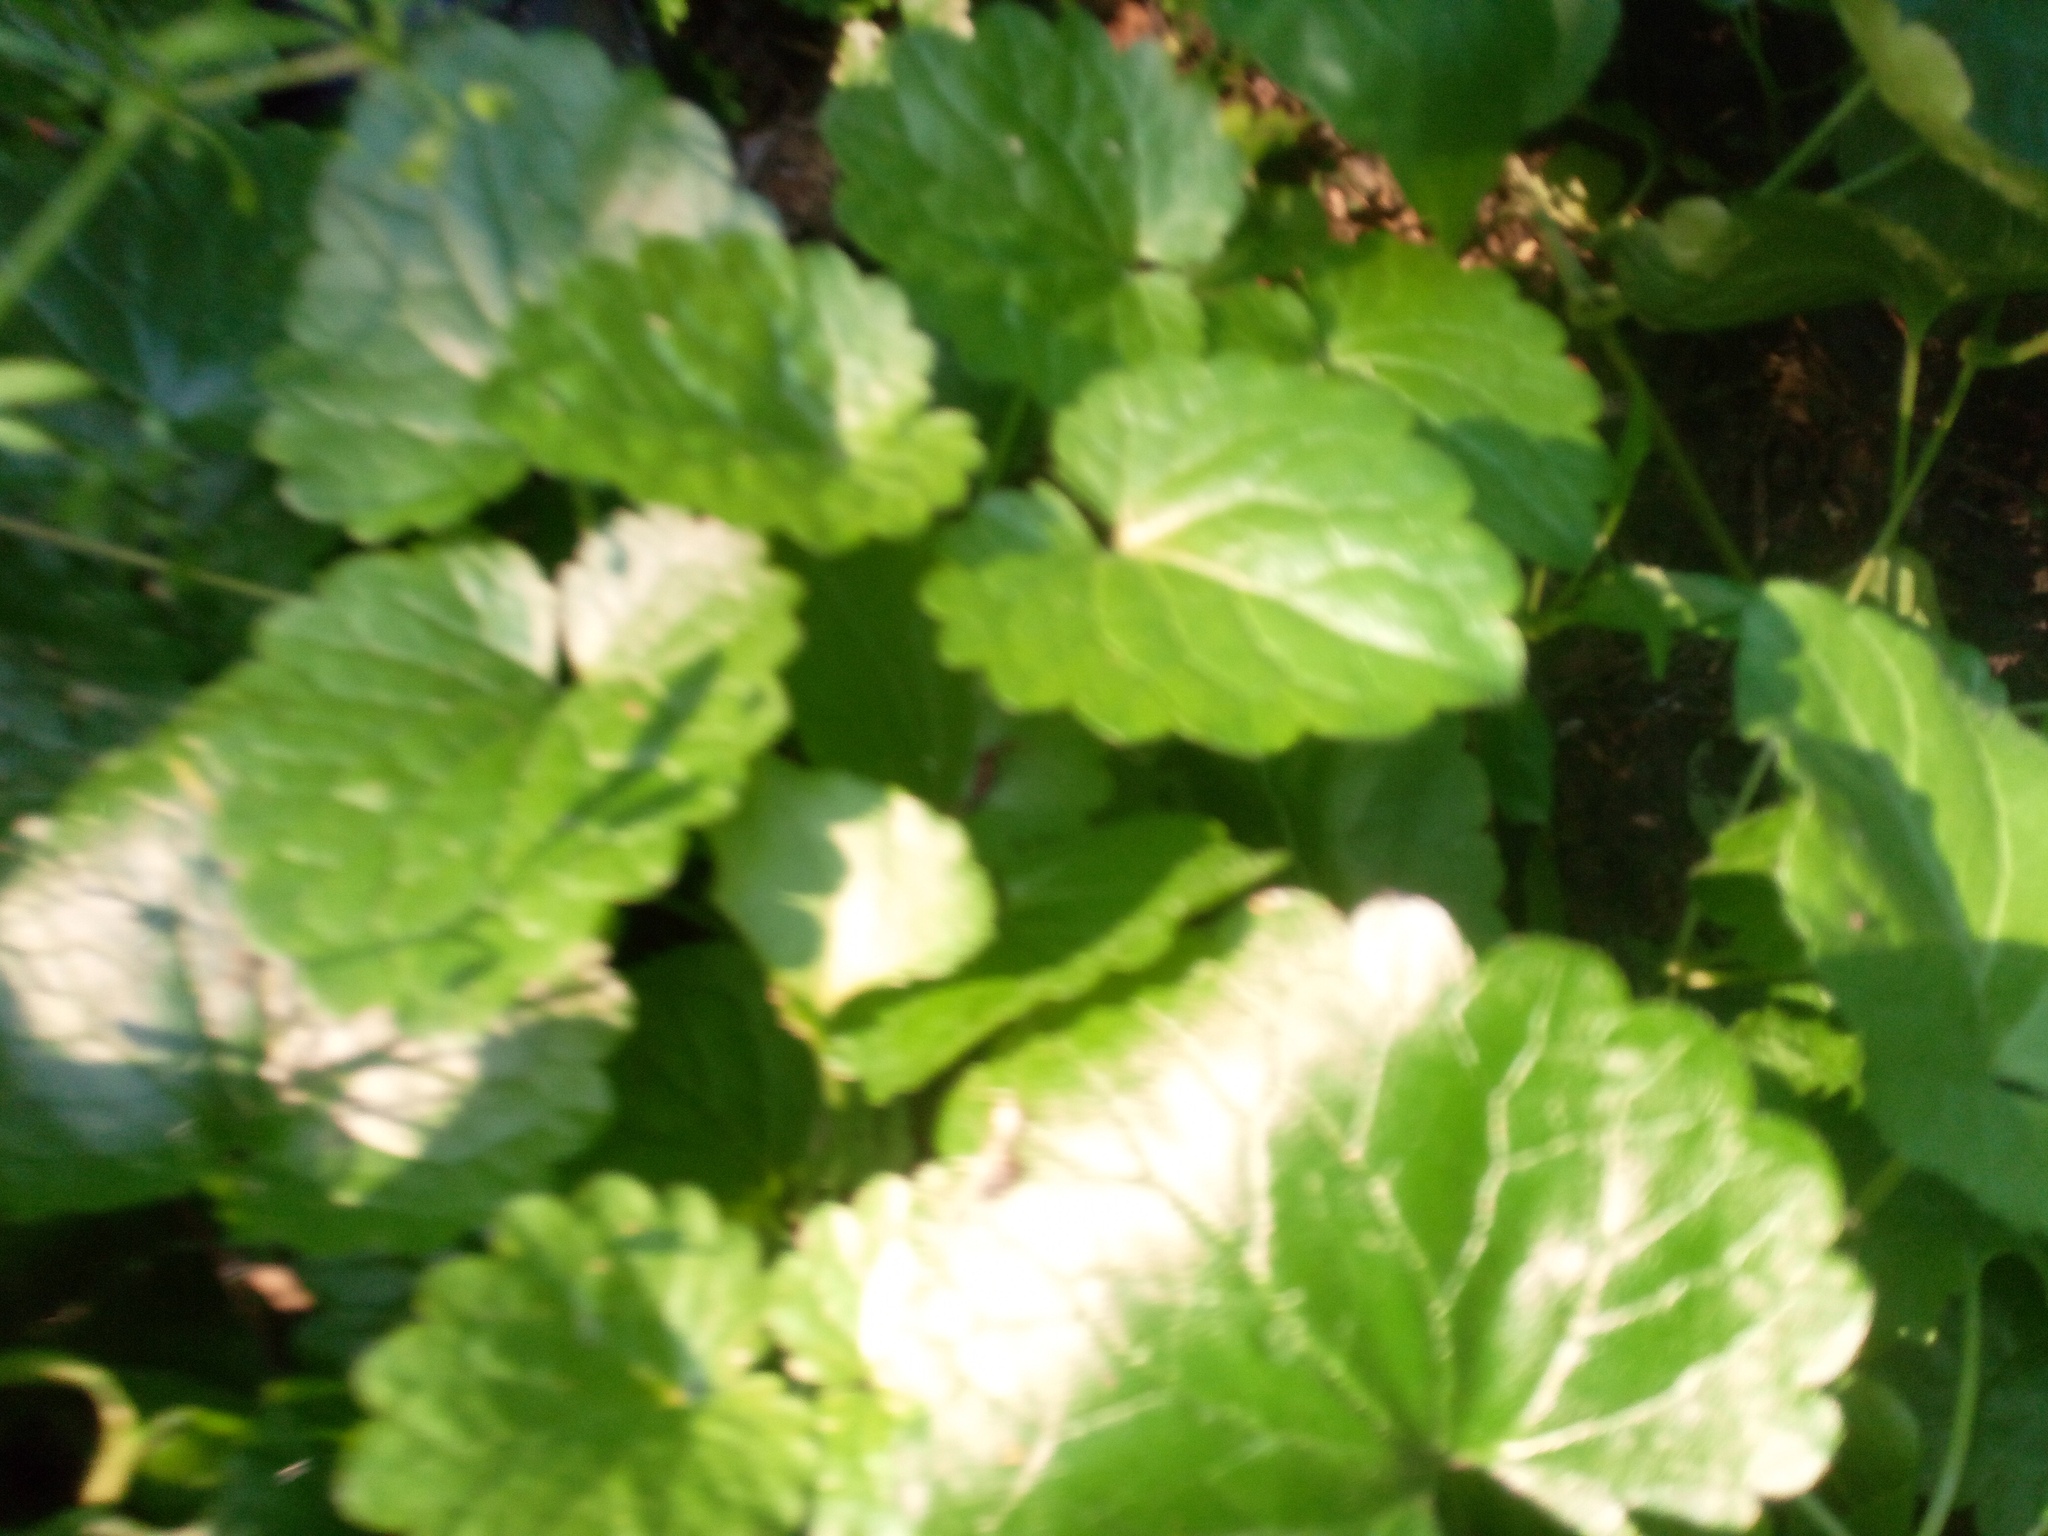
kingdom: Plantae
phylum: Tracheophyta
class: Magnoliopsida
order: Lamiales
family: Lamiaceae
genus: Glechoma
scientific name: Glechoma hederacea
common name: Ground ivy
